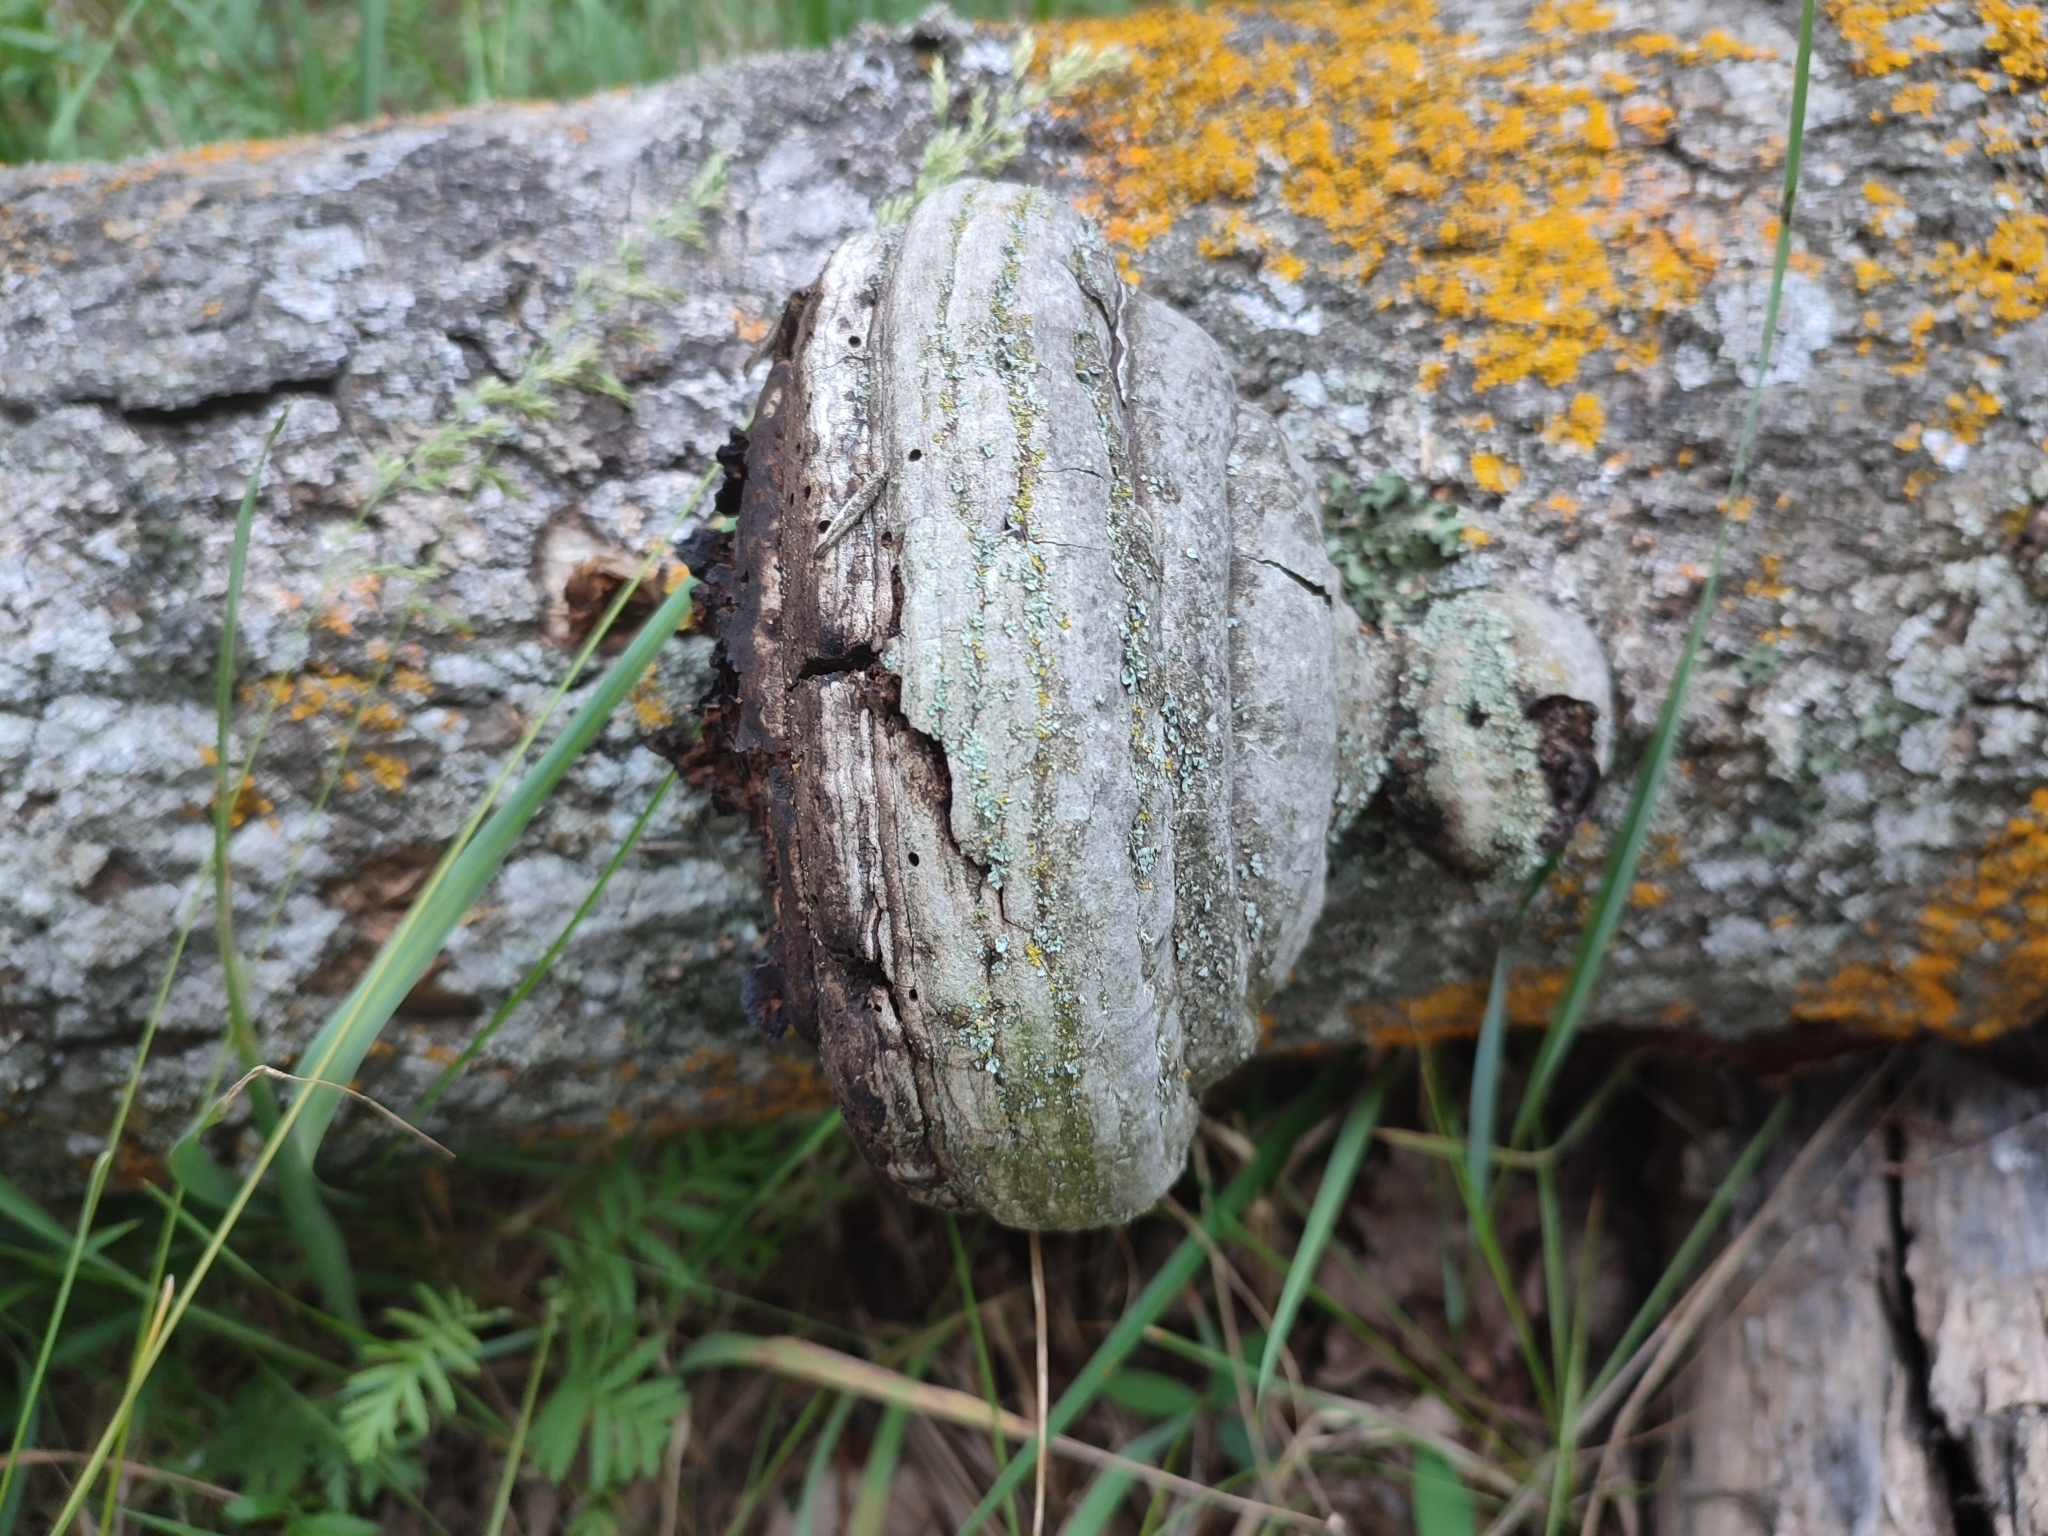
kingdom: Fungi
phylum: Basidiomycota
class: Agaricomycetes
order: Polyporales
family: Polyporaceae
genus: Fomes
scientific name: Fomes fomentarius
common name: Hoof fungus
